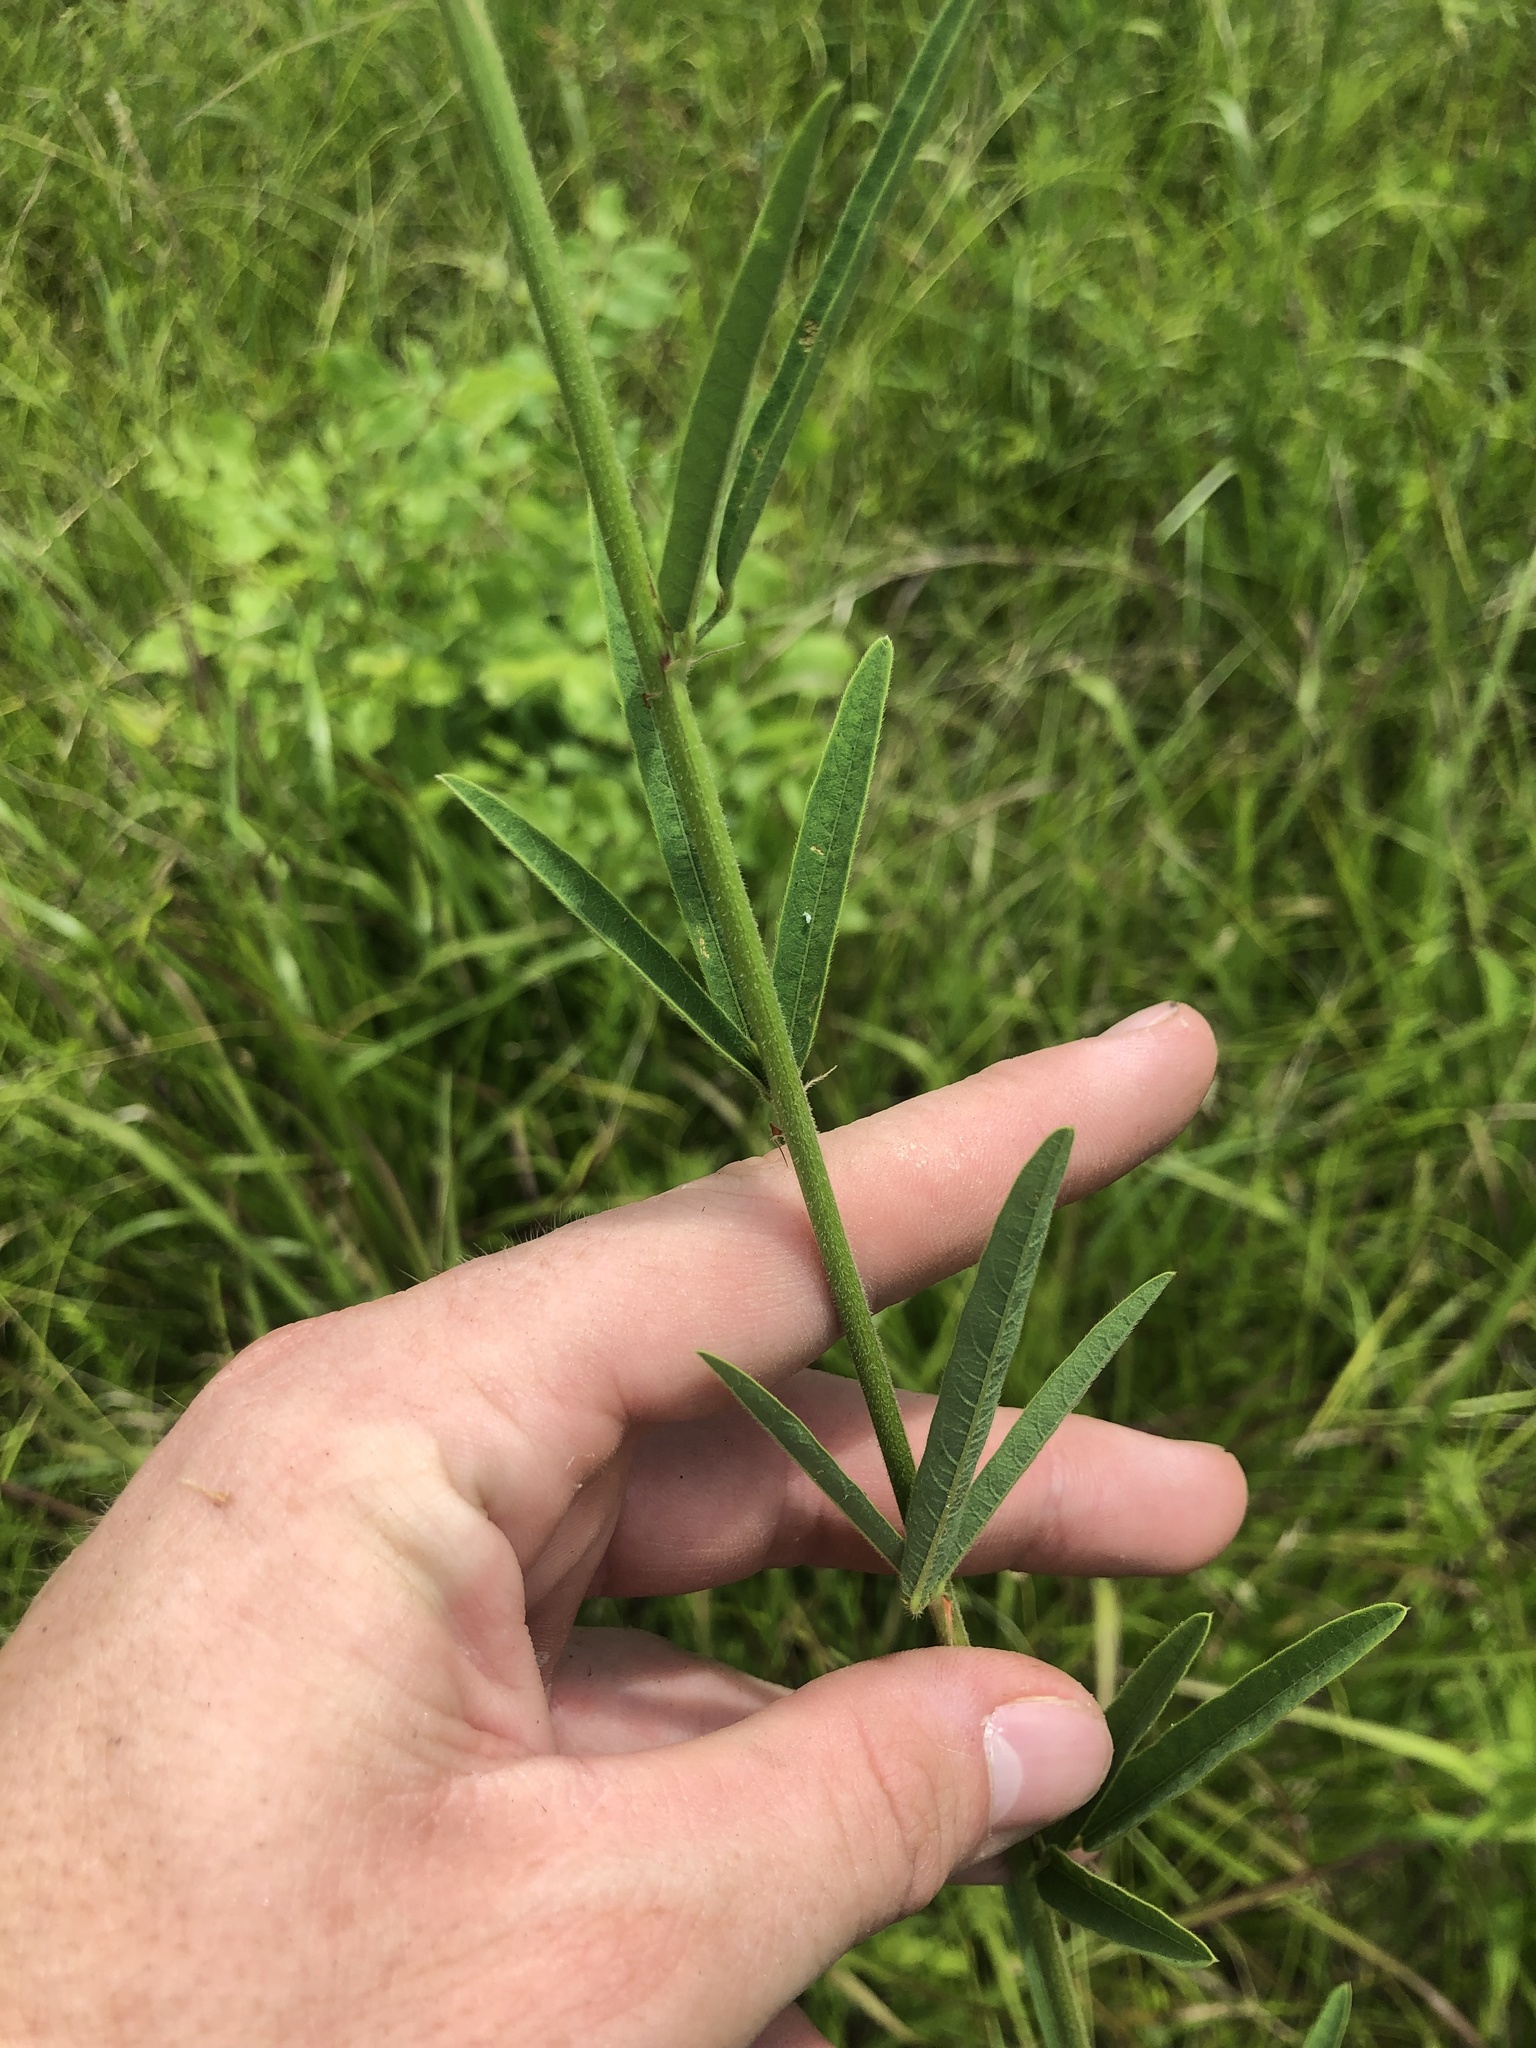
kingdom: Plantae
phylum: Tracheophyta
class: Magnoliopsida
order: Fabales
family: Fabaceae
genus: Desmodium
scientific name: Desmodium sessilifolium
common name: Sessile tick-clover
